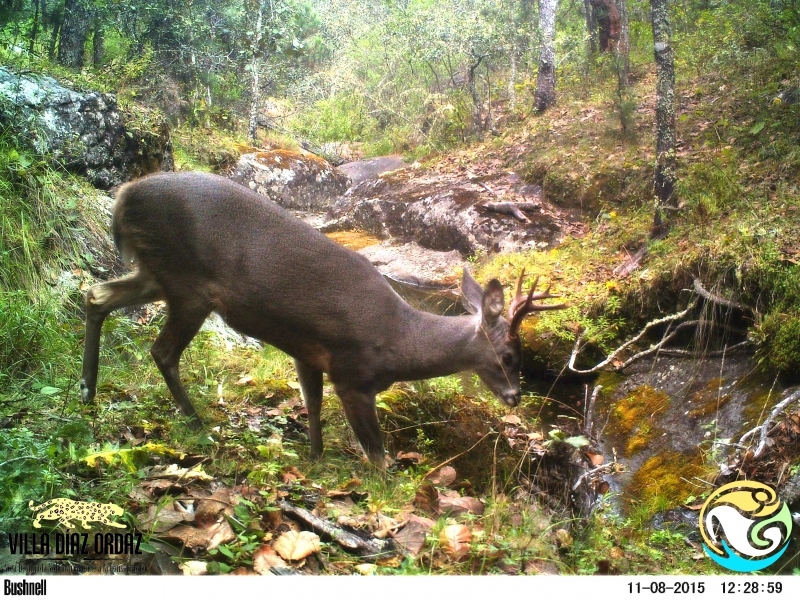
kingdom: Animalia
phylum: Chordata
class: Mammalia
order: Artiodactyla
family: Cervidae
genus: Odocoileus
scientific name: Odocoileus virginianus
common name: White-tailed deer
